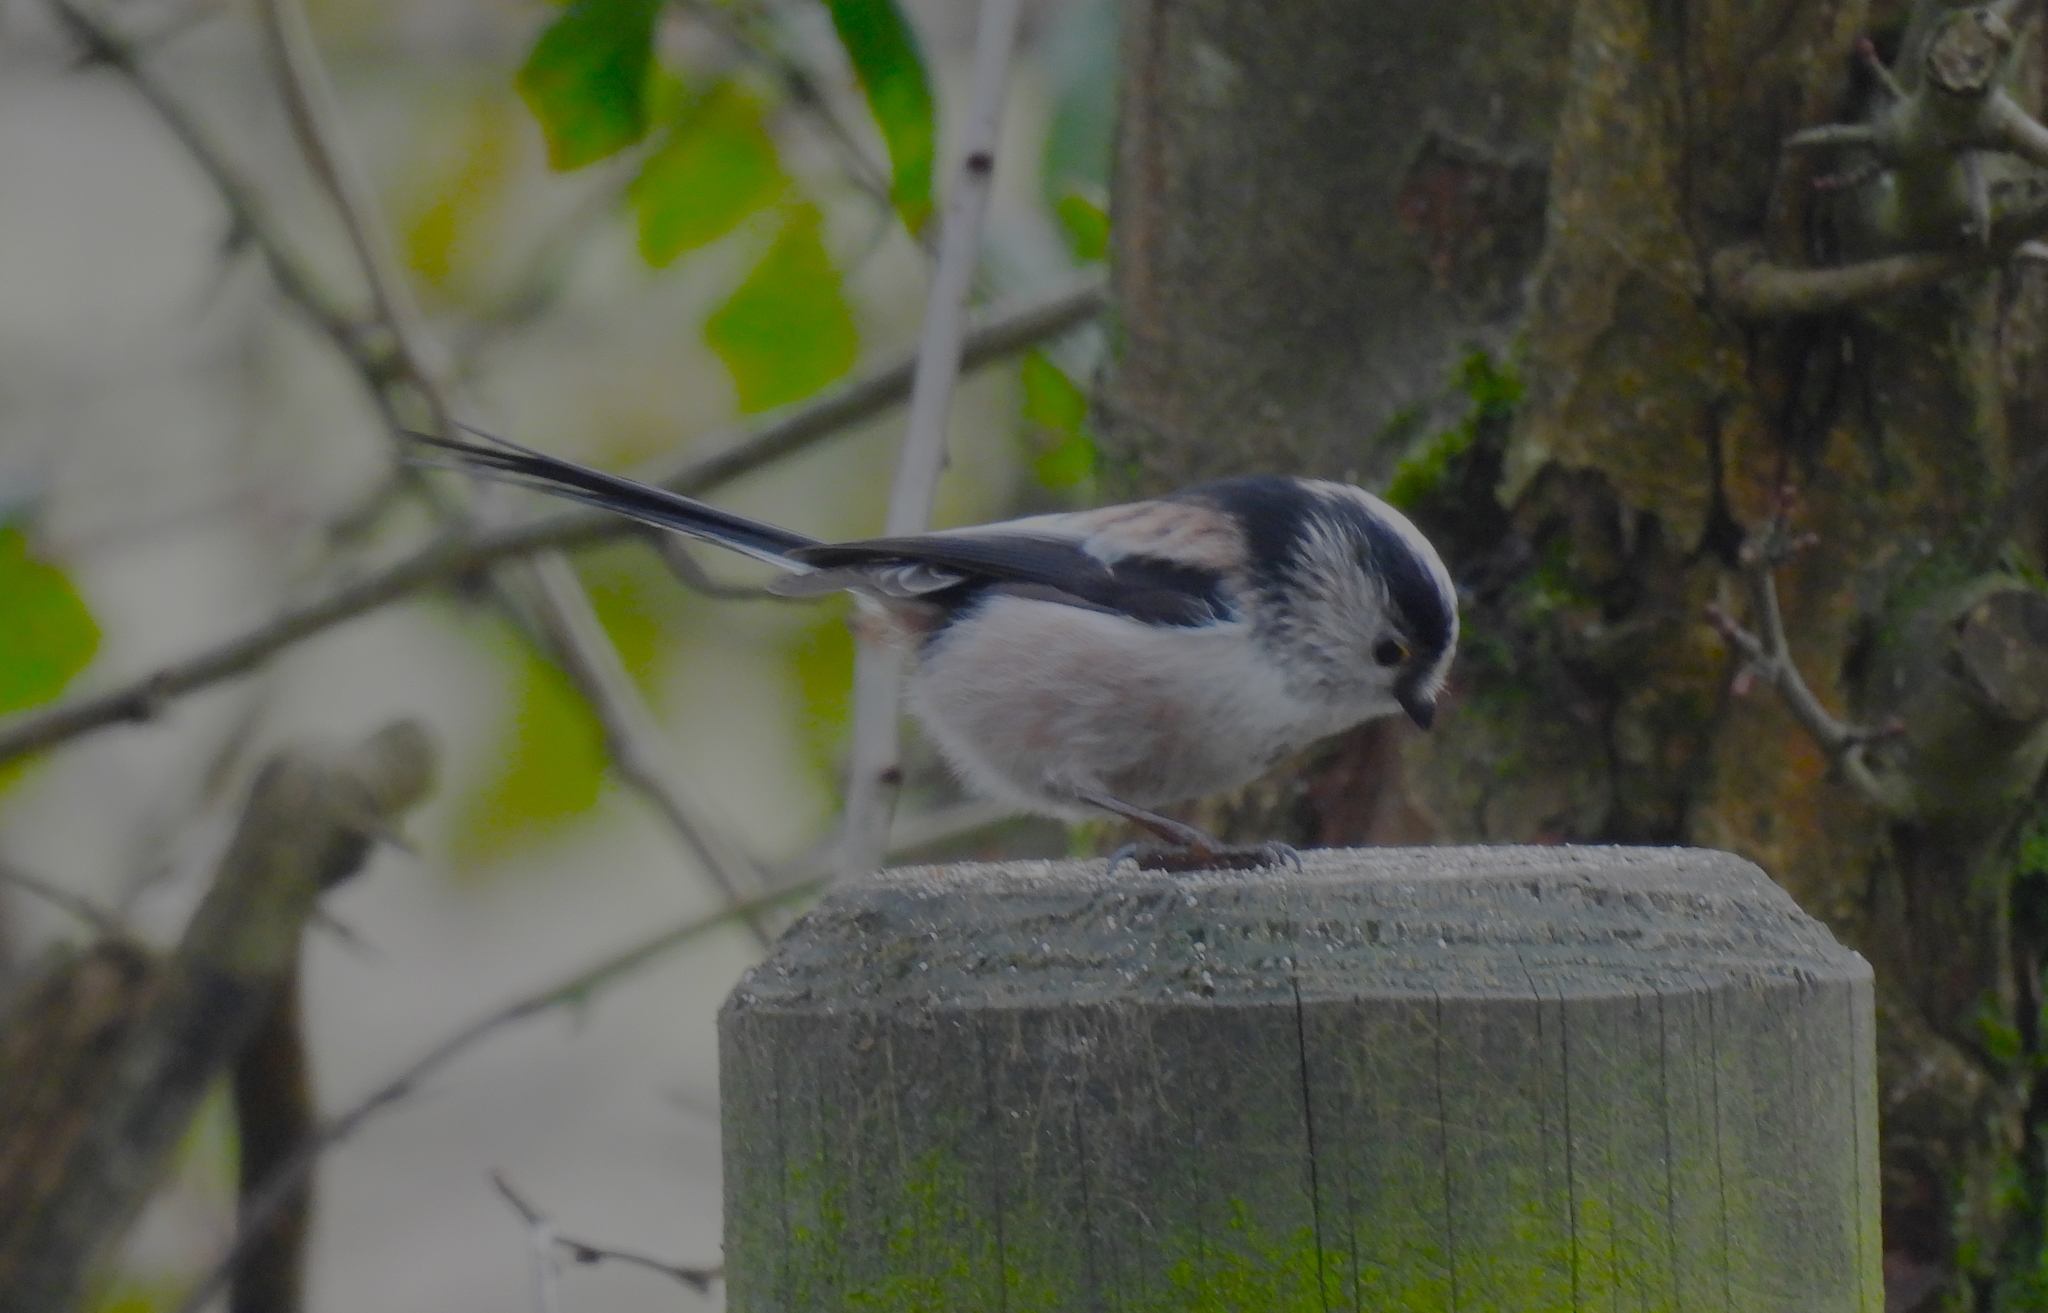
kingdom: Animalia
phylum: Chordata
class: Aves
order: Passeriformes
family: Aegithalidae
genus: Aegithalos
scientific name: Aegithalos caudatus
